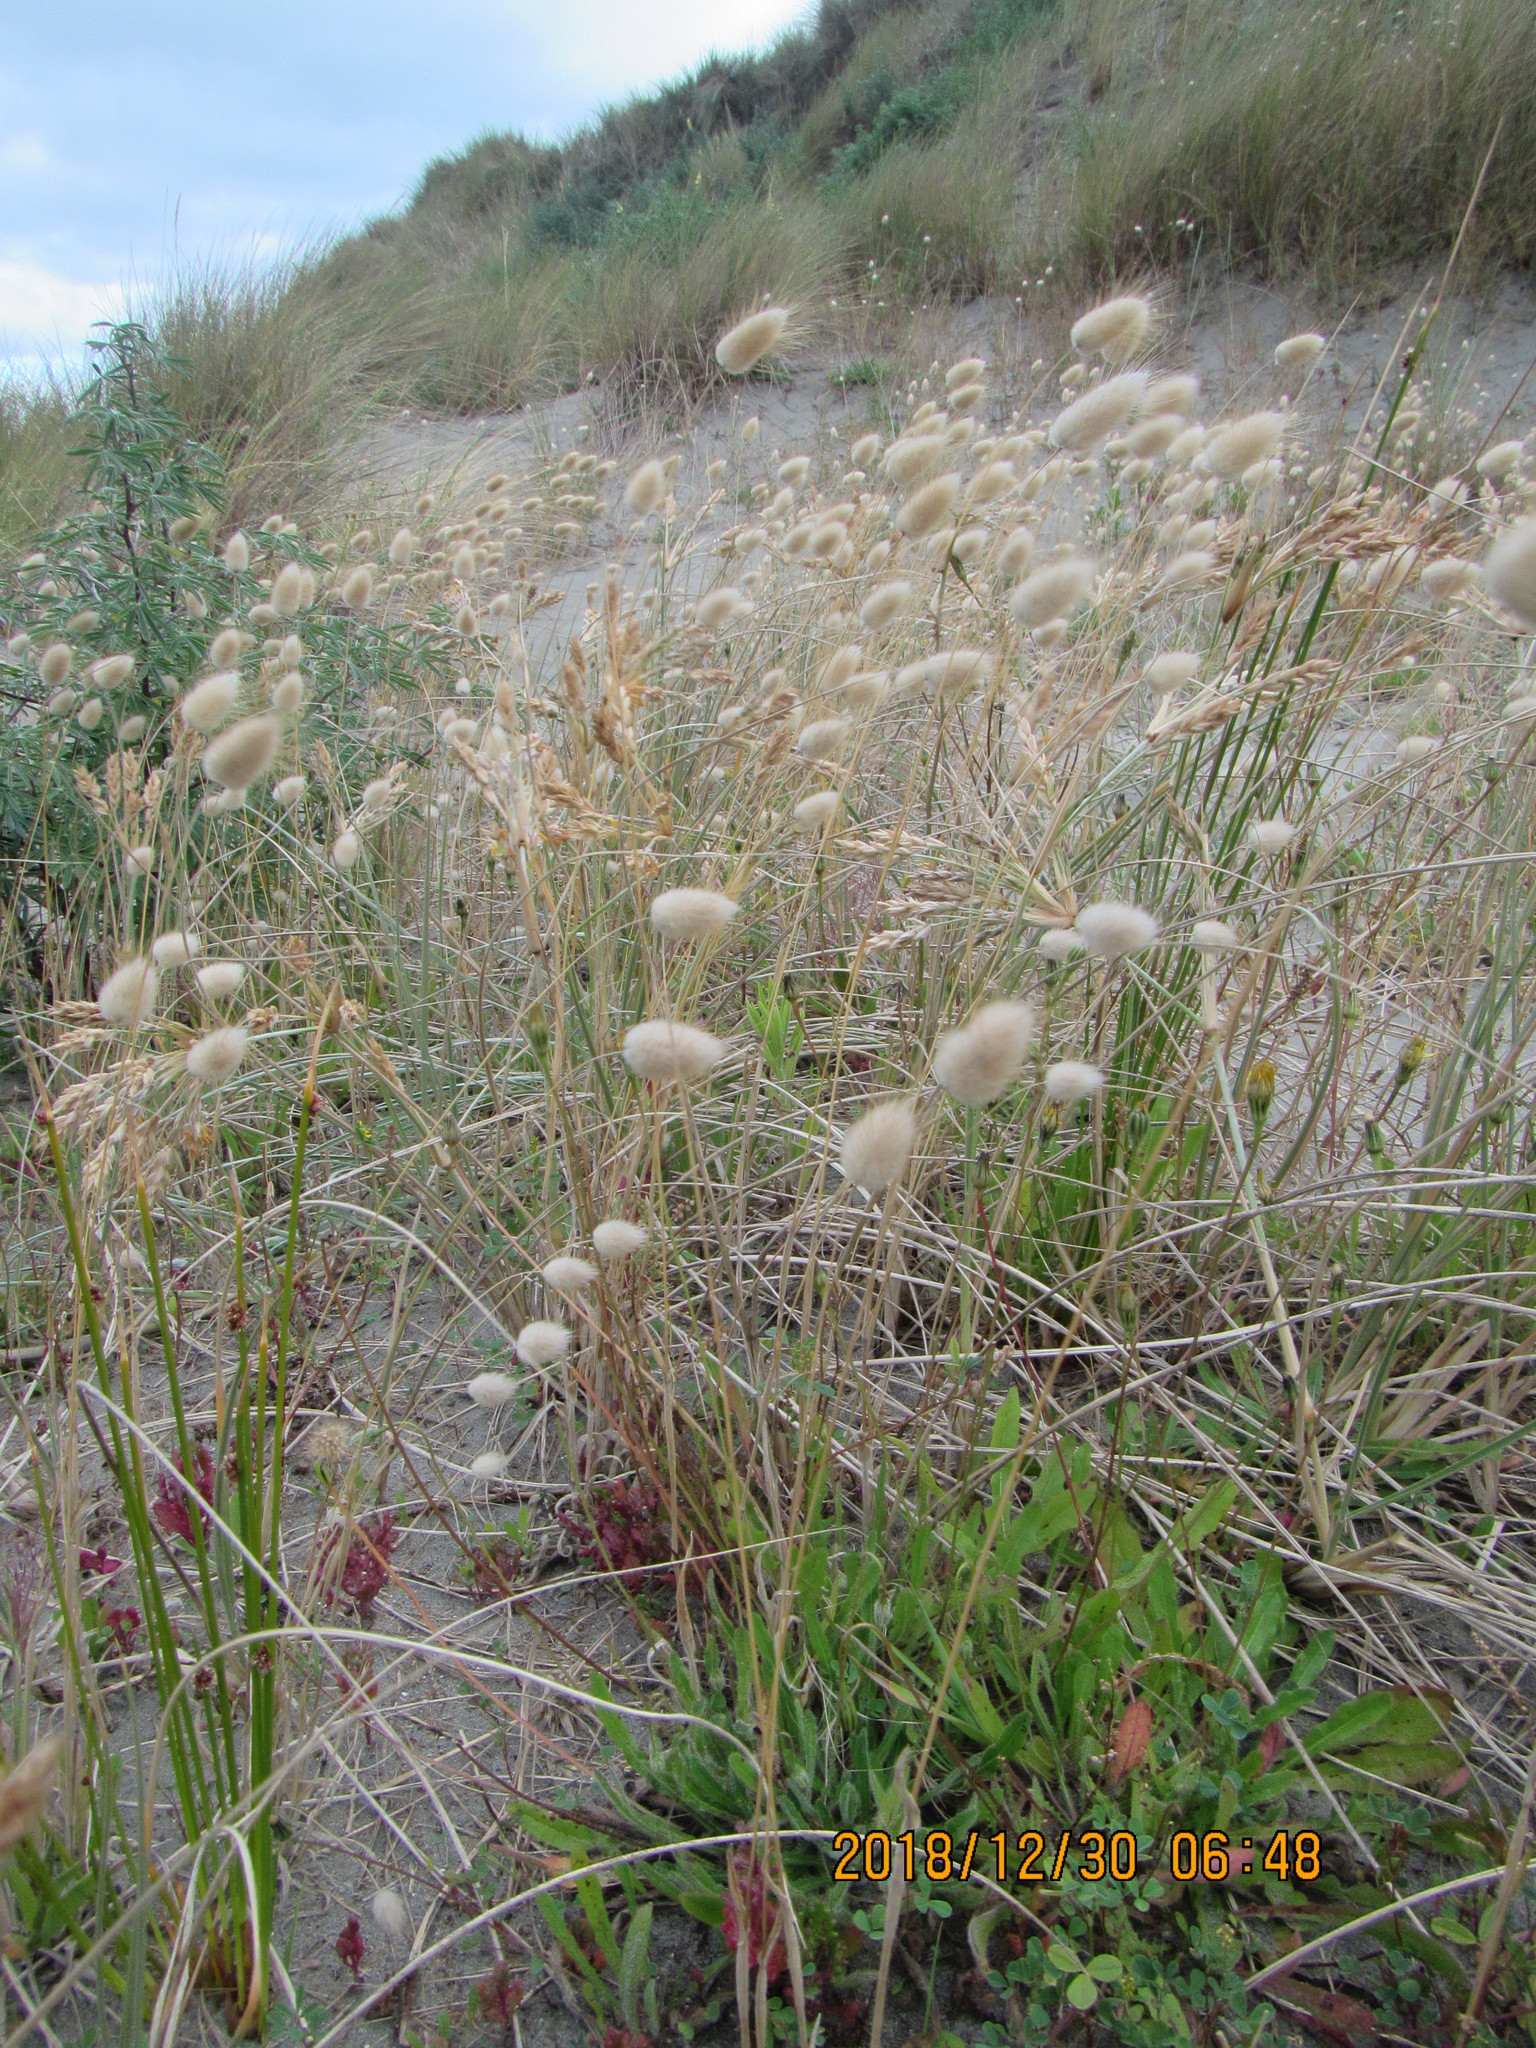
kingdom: Plantae
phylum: Tracheophyta
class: Liliopsida
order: Poales
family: Poaceae
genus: Lagurus
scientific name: Lagurus ovatus
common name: Hare's-tail
